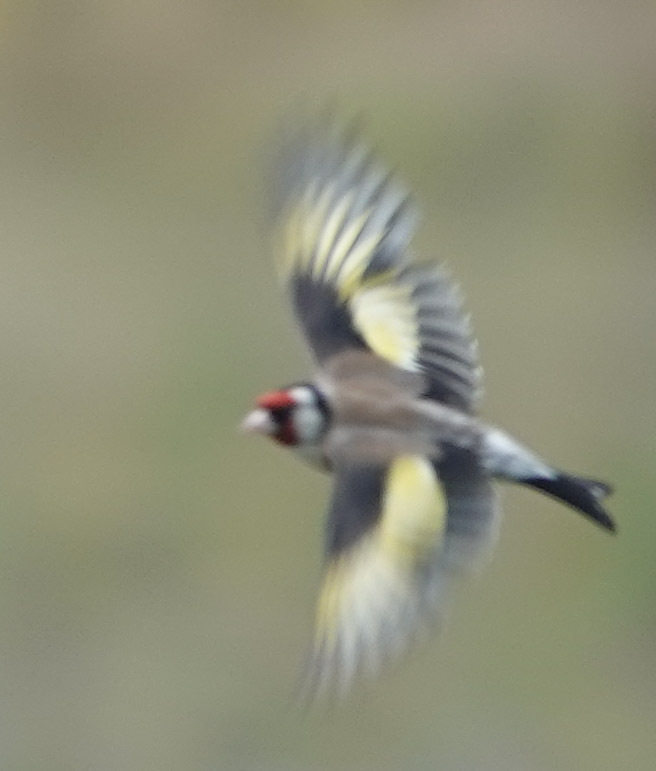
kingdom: Animalia
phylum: Chordata
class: Aves
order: Passeriformes
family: Fringillidae
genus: Carduelis
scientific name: Carduelis carduelis
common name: European goldfinch
